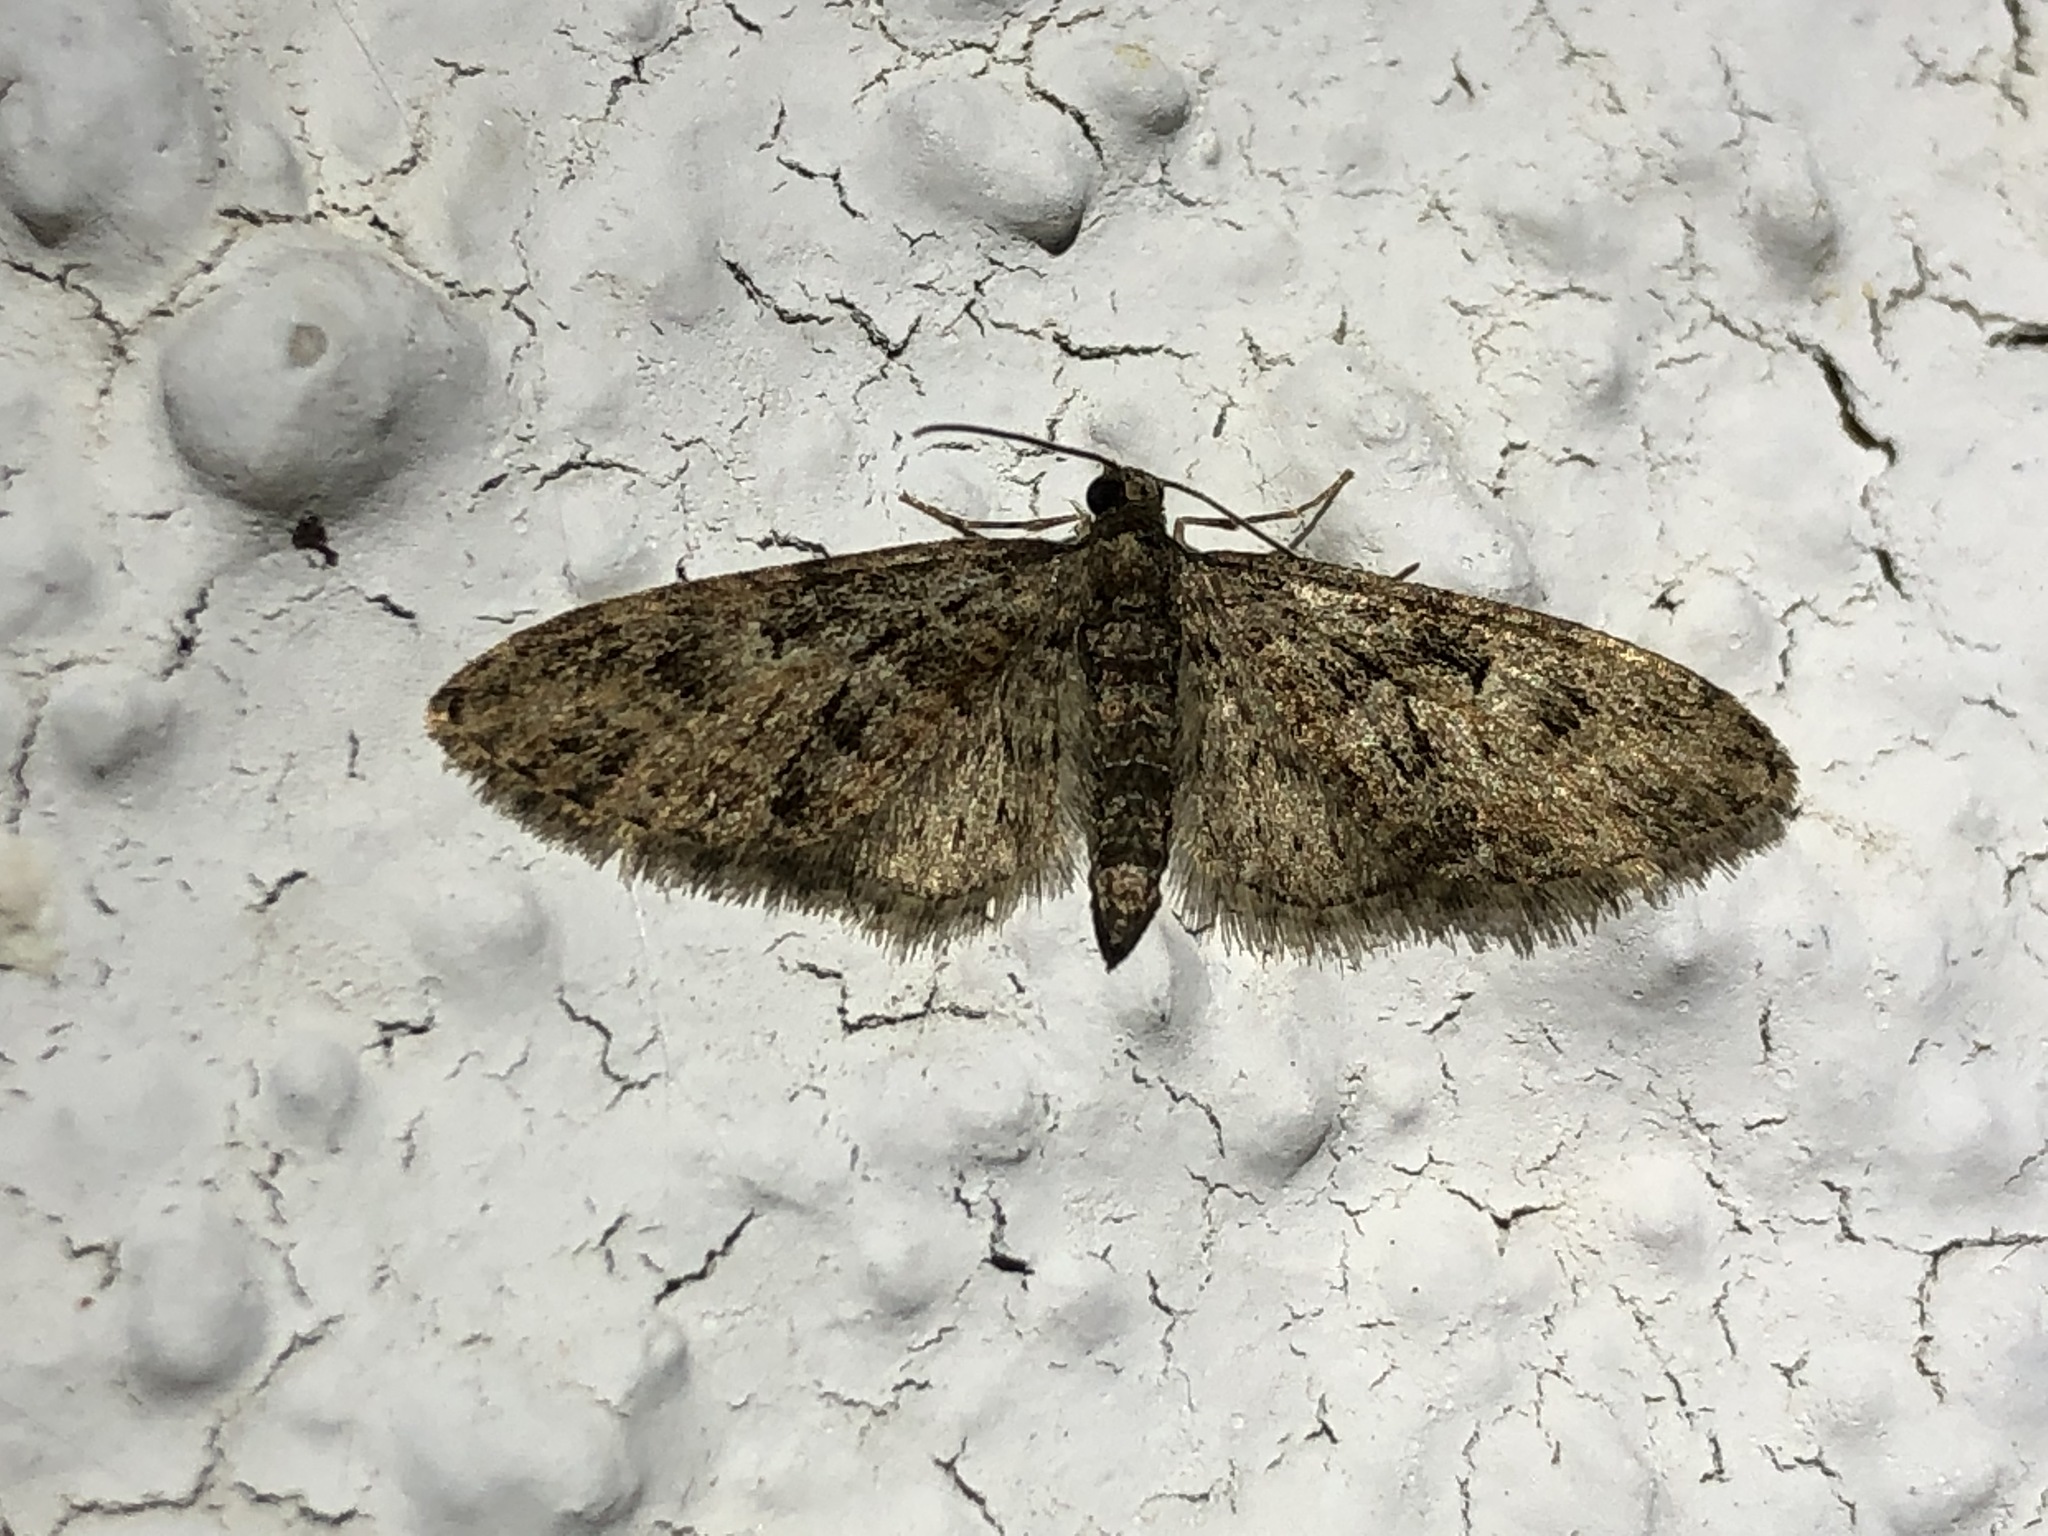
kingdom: Animalia
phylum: Arthropoda
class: Insecta
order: Lepidoptera
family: Geometridae
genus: Eupithecia
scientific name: Eupithecia abbreviata
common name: Brindled pug
